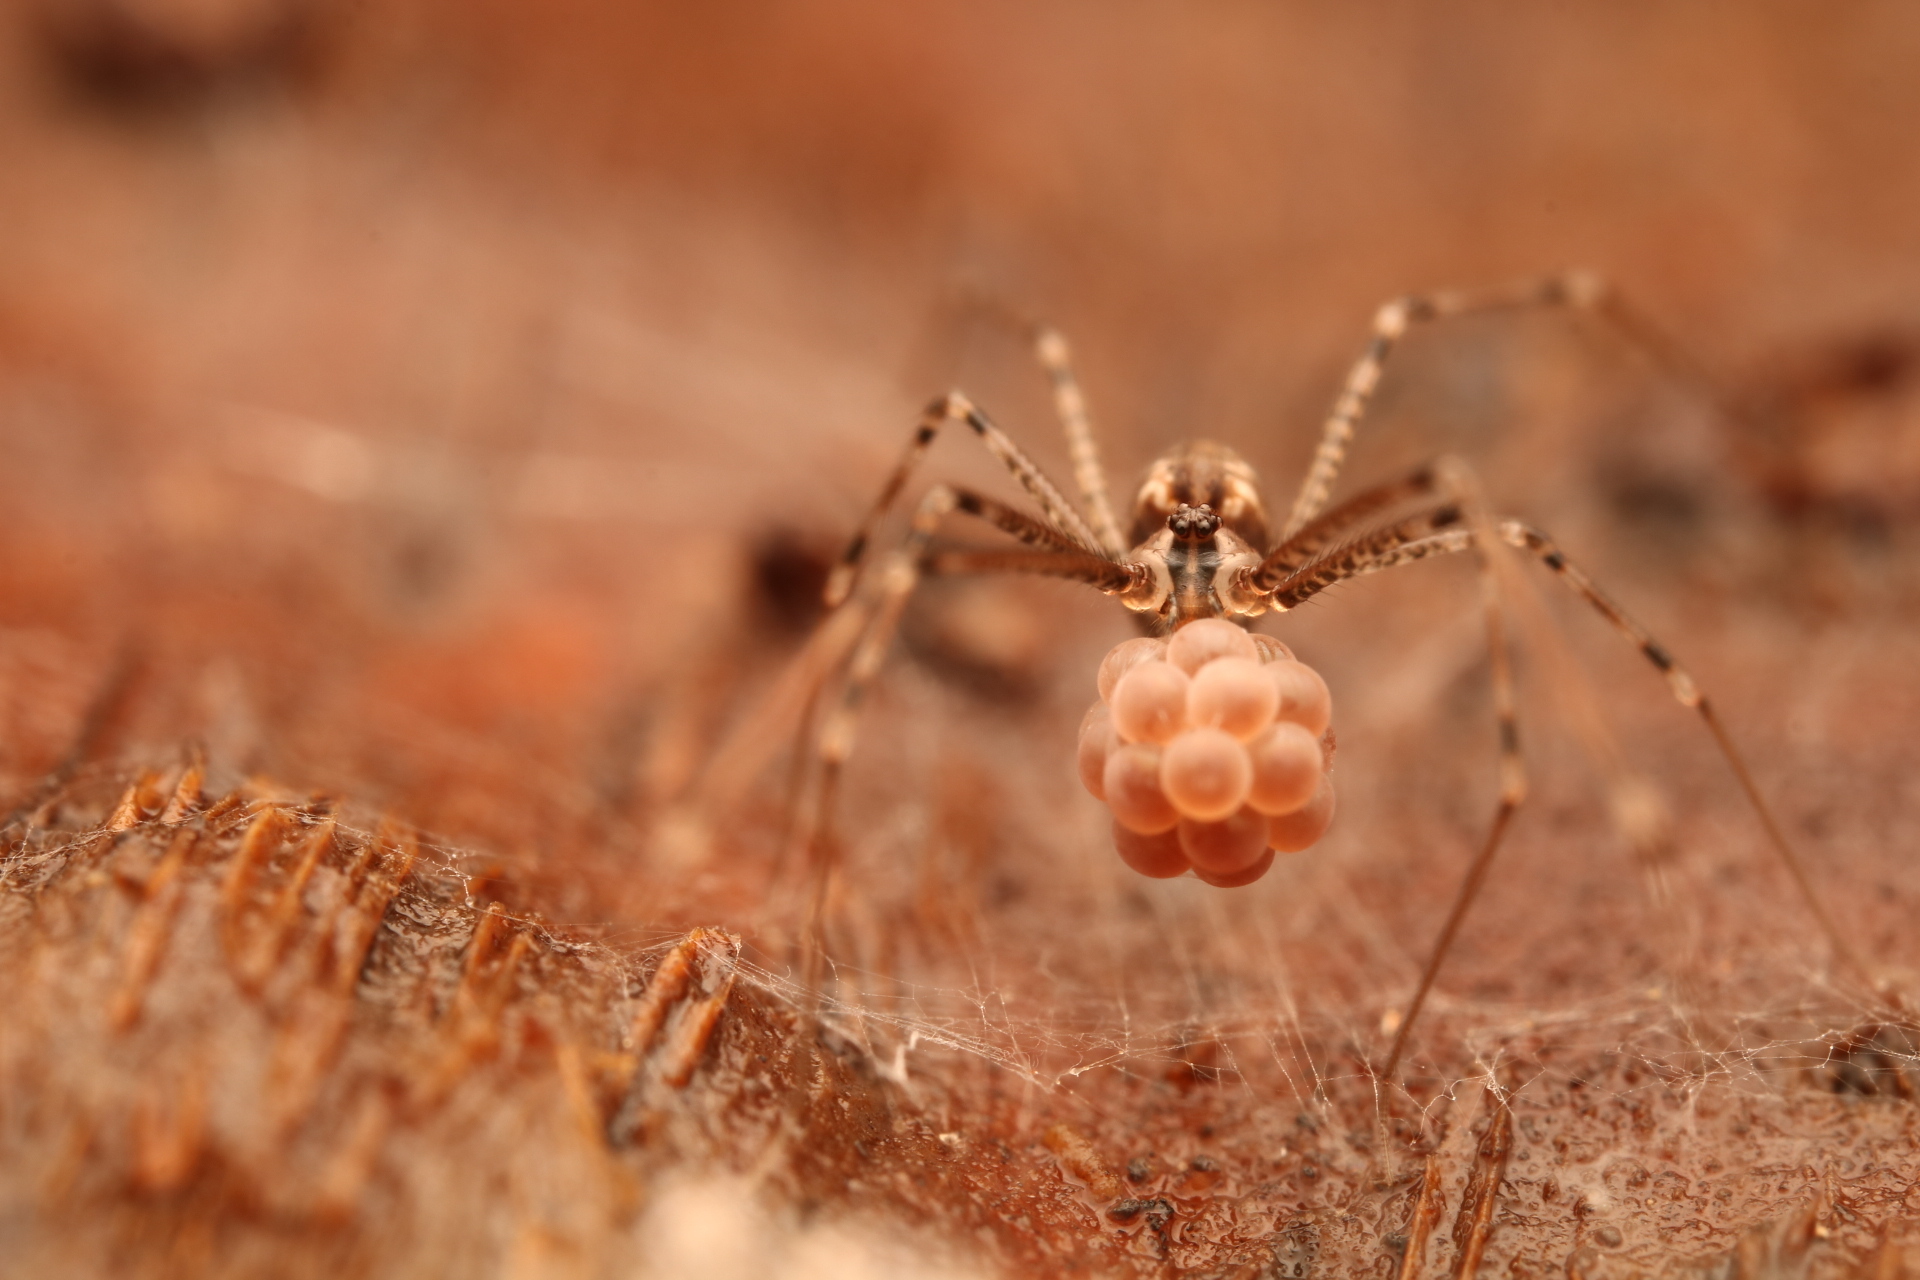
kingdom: Animalia
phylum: Arthropoda
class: Arachnida
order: Araneae
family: Pholcidae
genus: Modisimus
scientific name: Modisimus texanus
